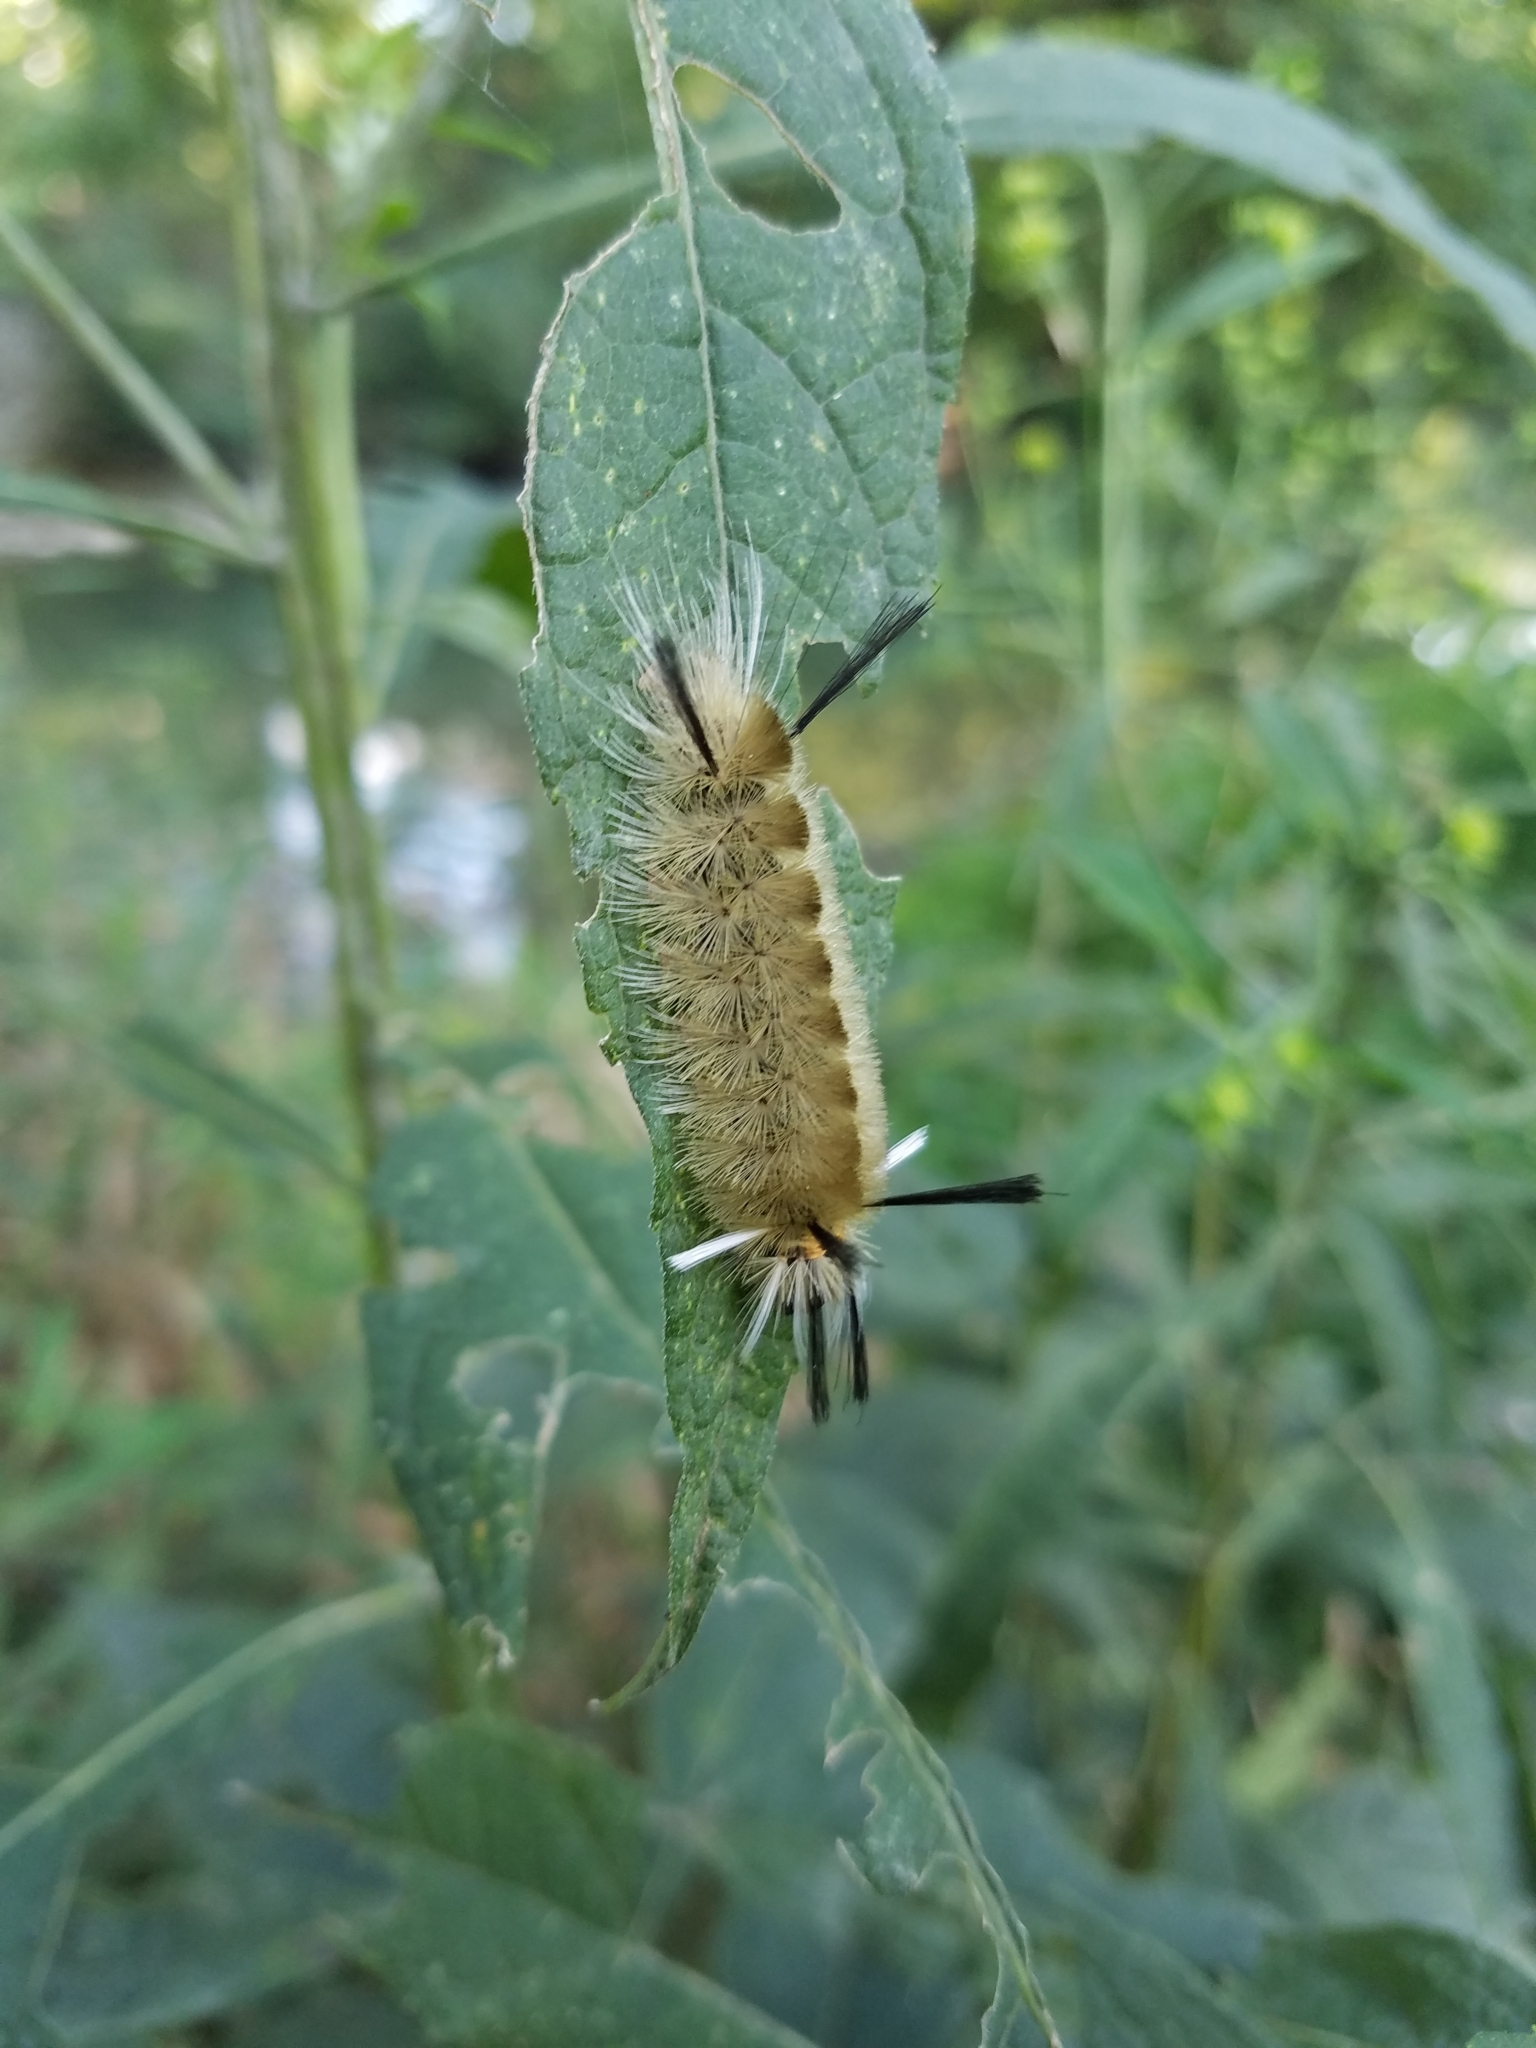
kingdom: Animalia
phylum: Arthropoda
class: Insecta
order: Lepidoptera
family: Erebidae
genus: Halysidota
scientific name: Halysidota tessellaris
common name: Banded tussock moth
